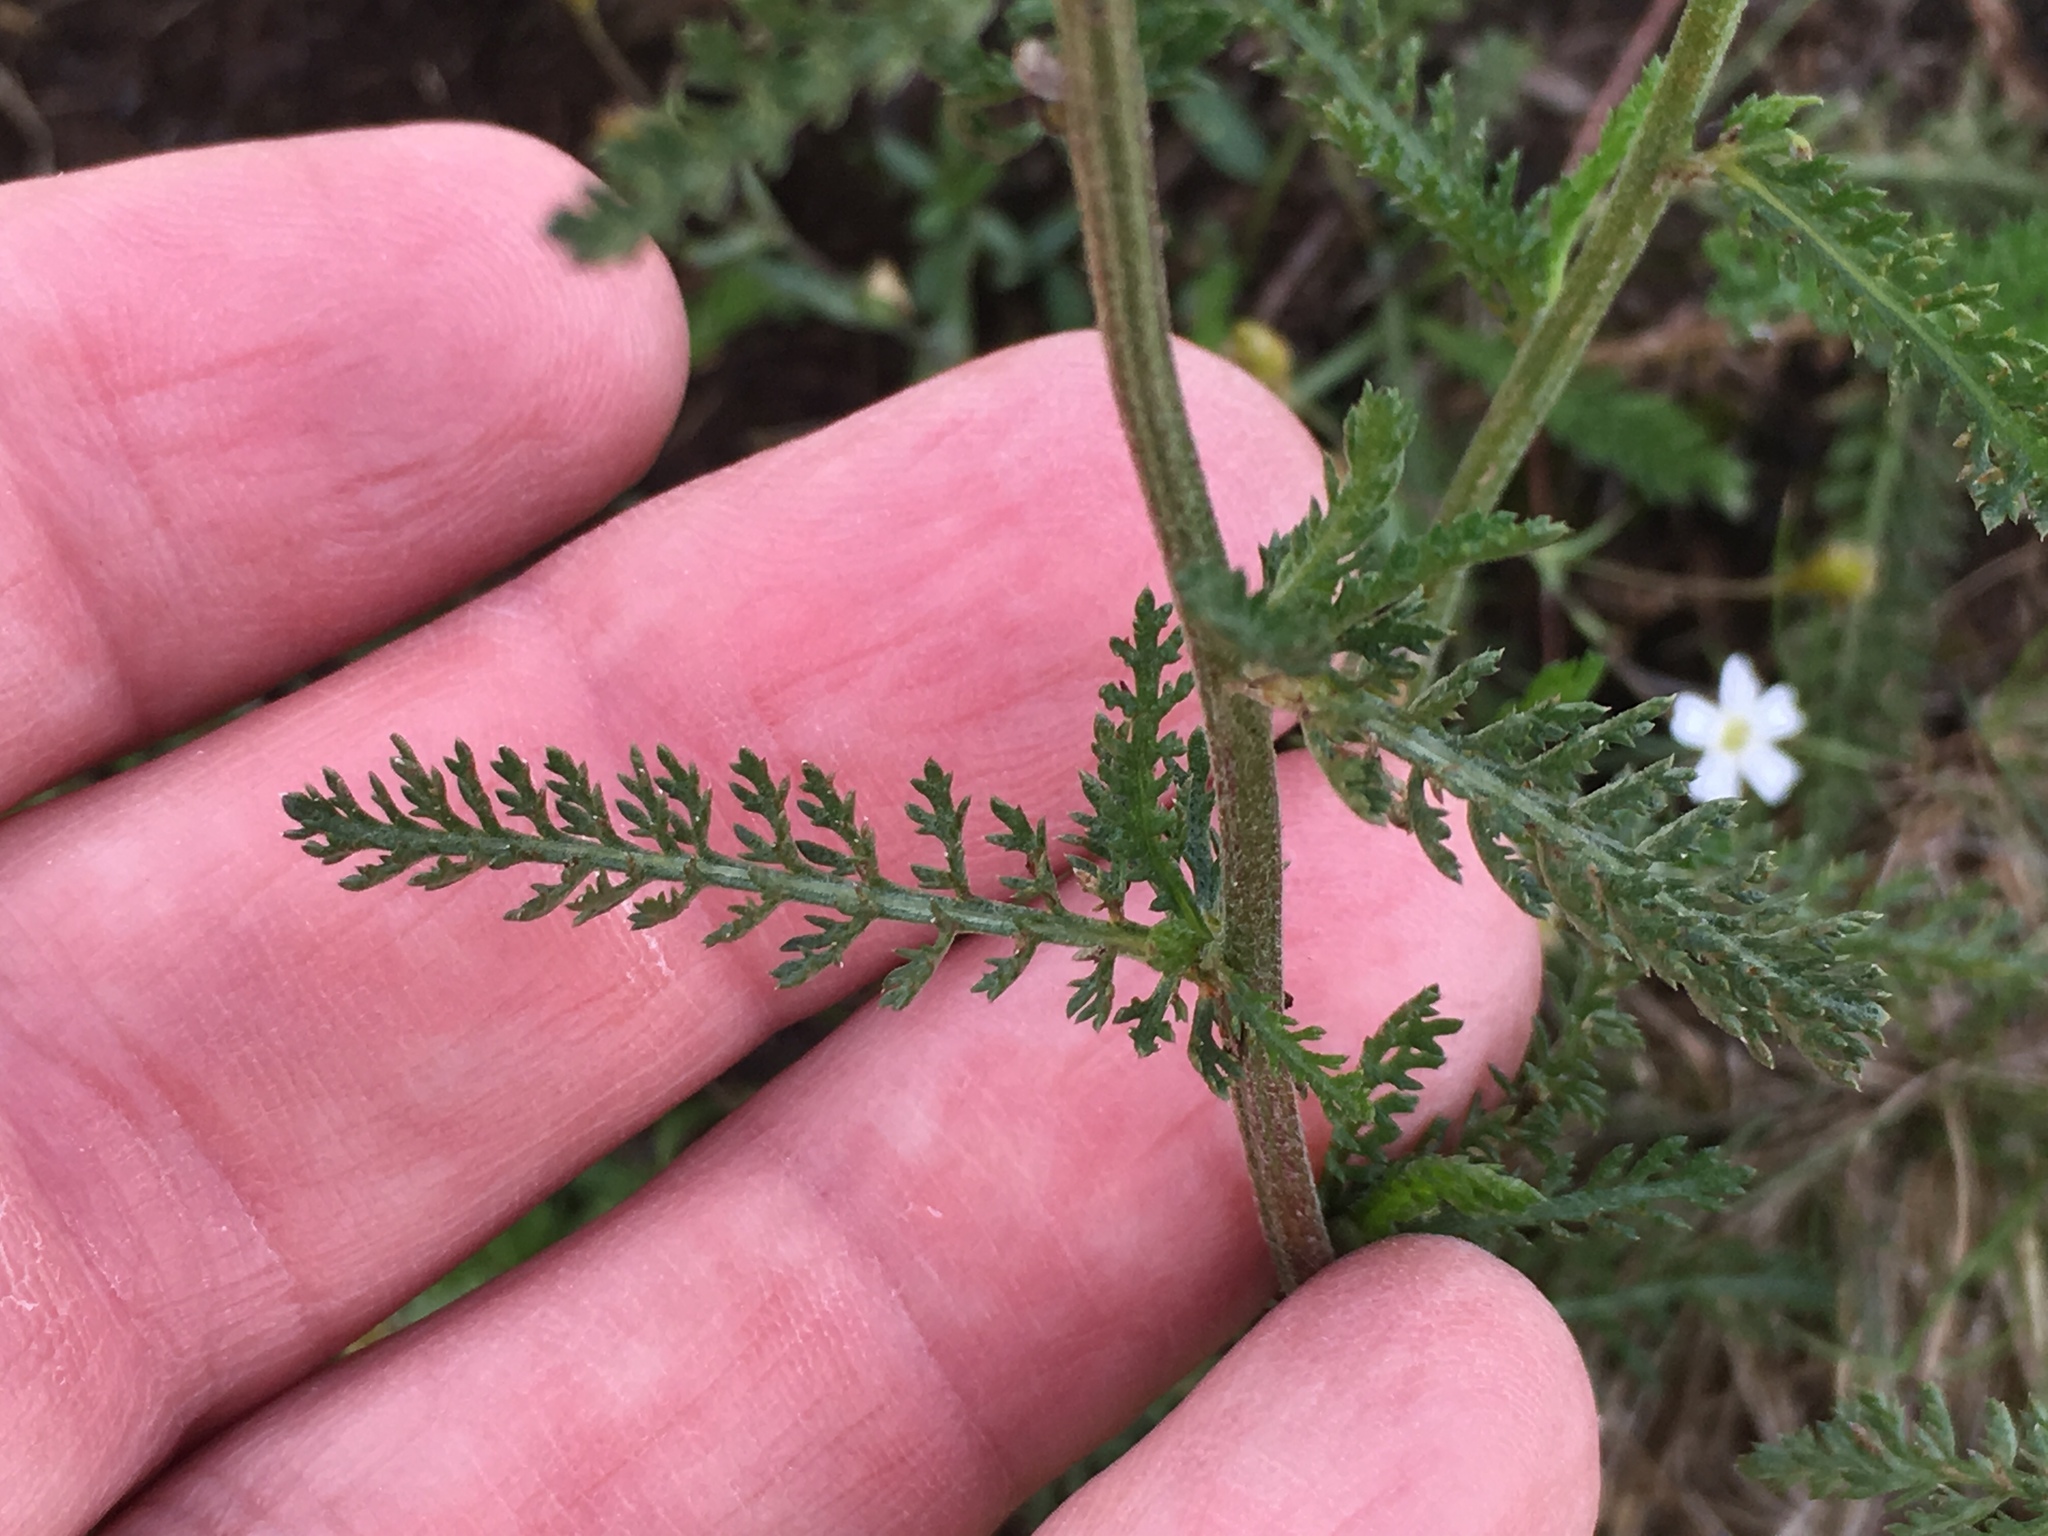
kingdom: Plantae
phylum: Tracheophyta
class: Magnoliopsida
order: Asterales
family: Asteraceae
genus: Achillea
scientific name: Achillea millefolium
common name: Yarrow
